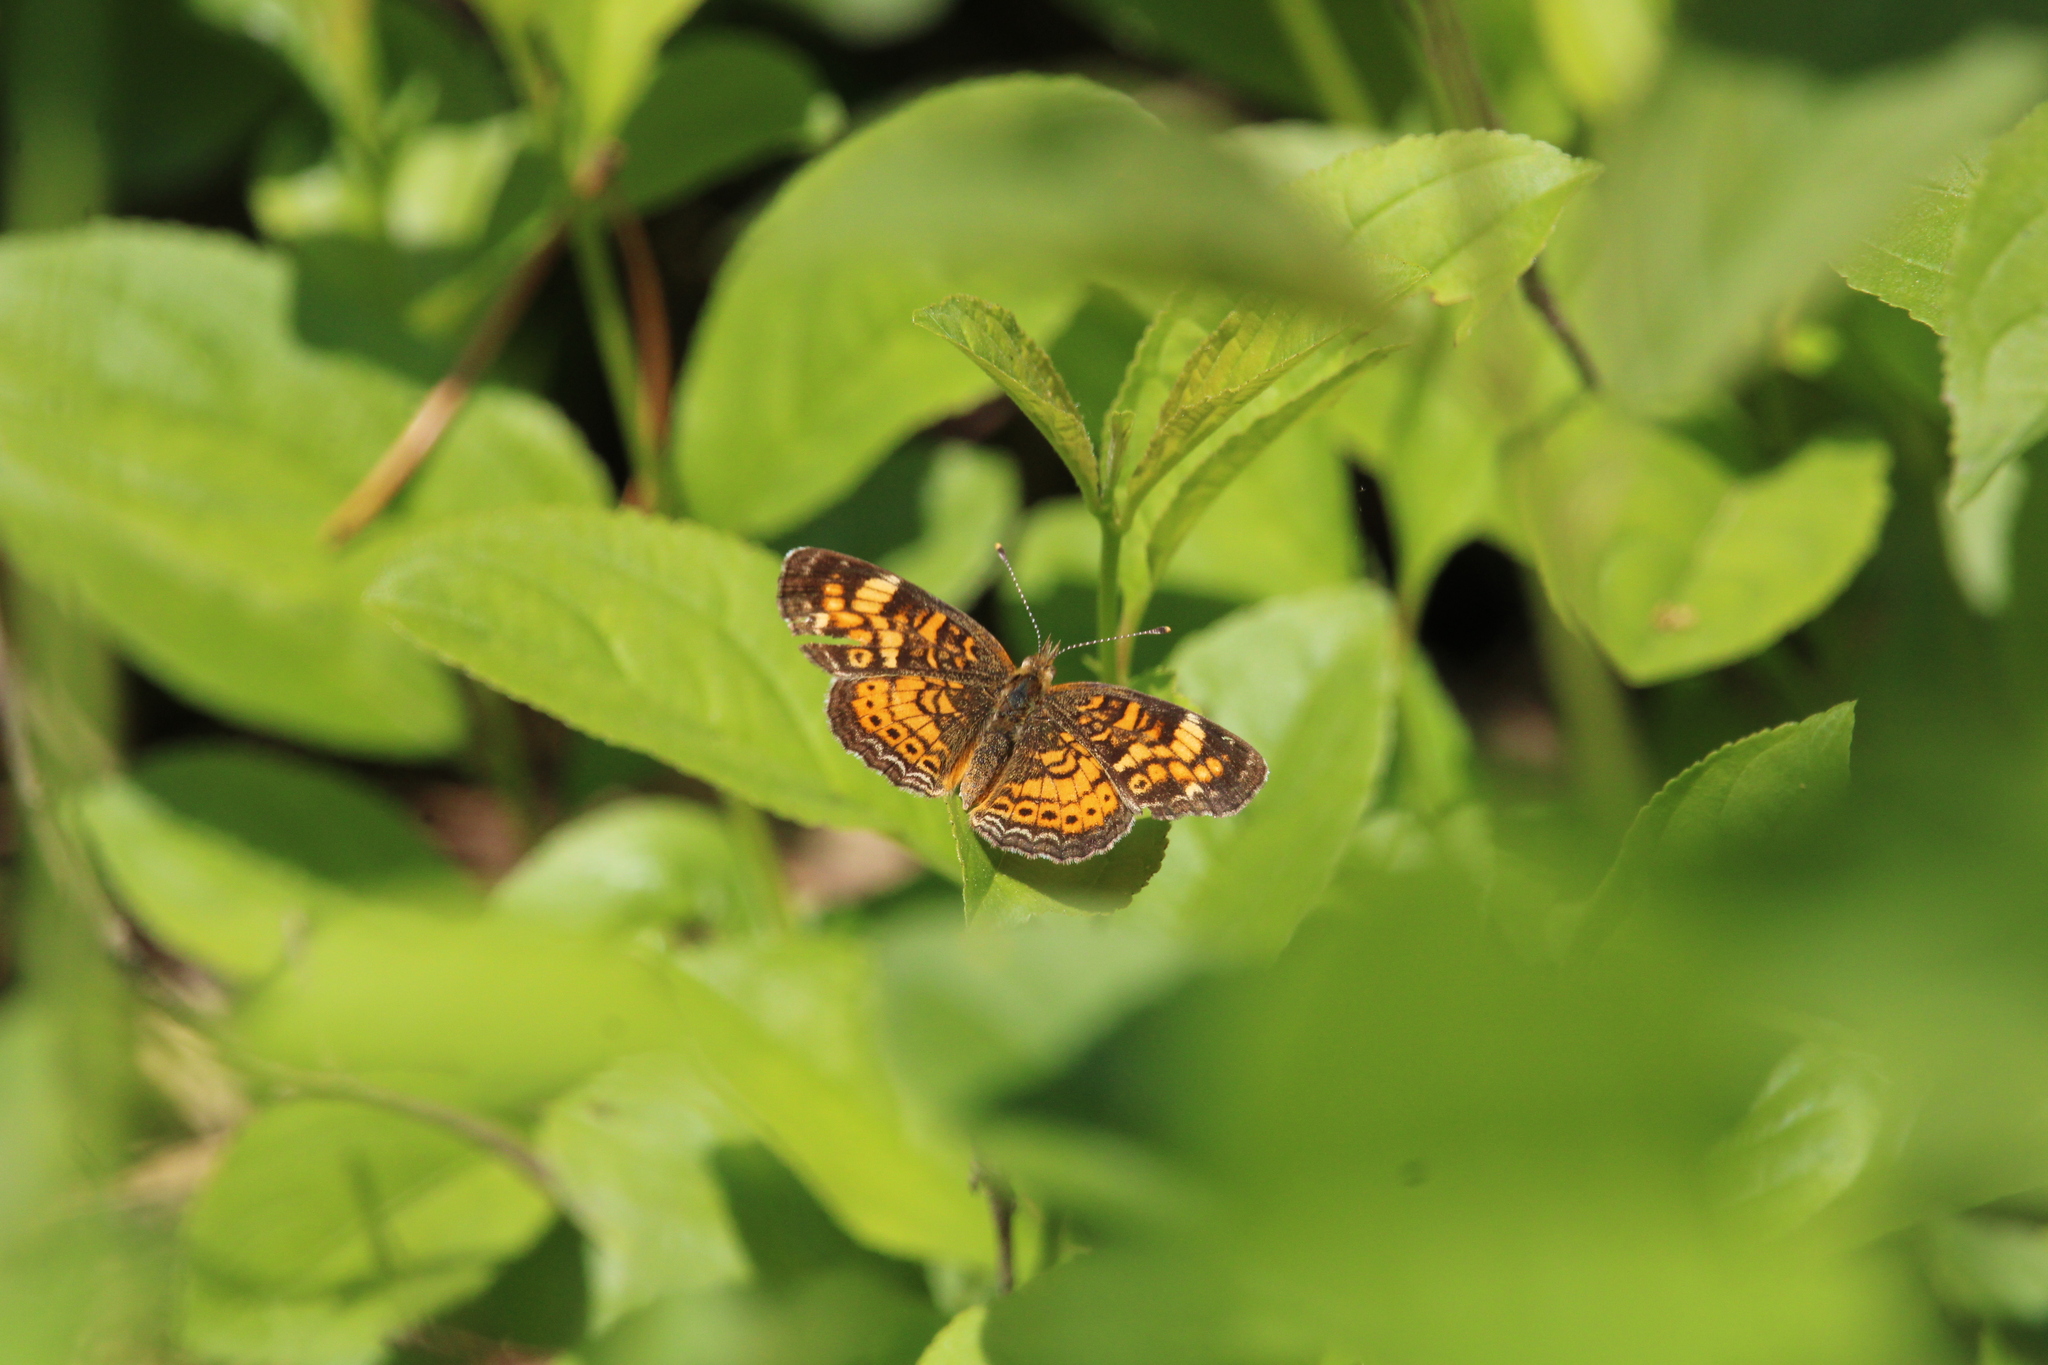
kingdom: Animalia
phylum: Arthropoda
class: Insecta
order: Lepidoptera
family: Nymphalidae
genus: Phyciodes
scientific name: Phyciodes tharos
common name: Pearl crescent
